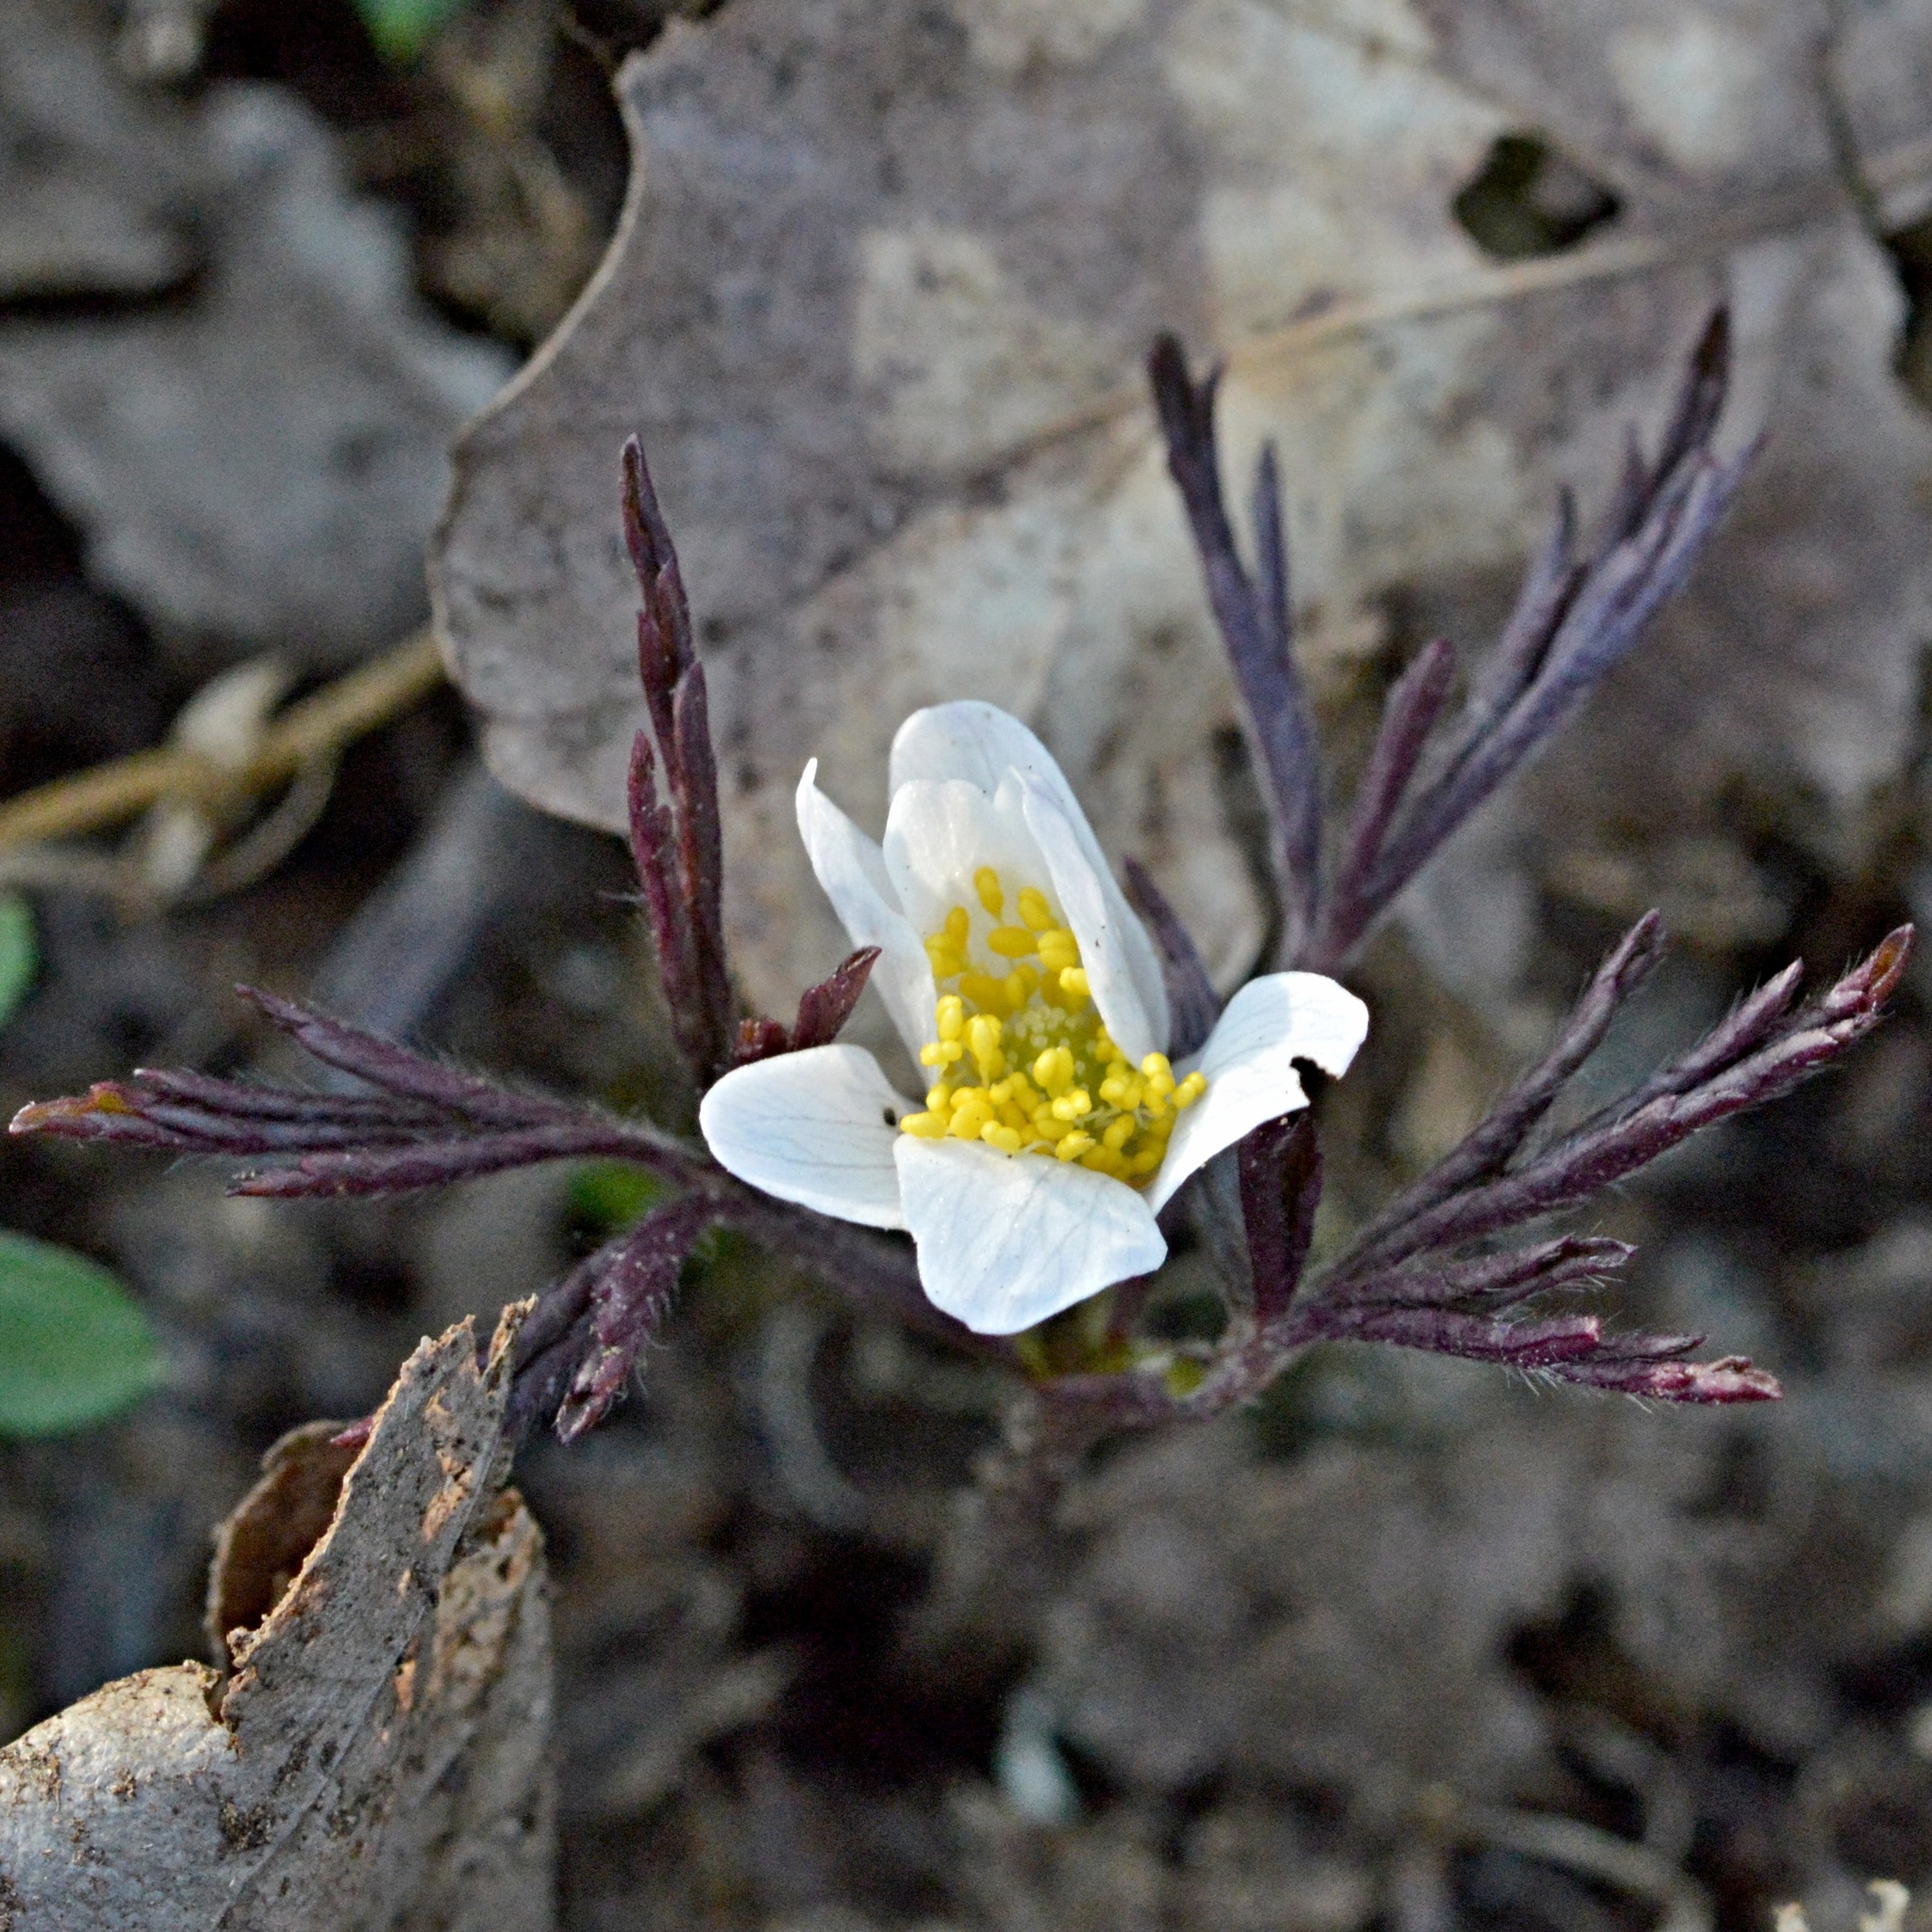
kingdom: Plantae
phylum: Tracheophyta
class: Magnoliopsida
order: Ranunculales
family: Ranunculaceae
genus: Anemone
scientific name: Anemone nemorosa
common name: Wood anemone
